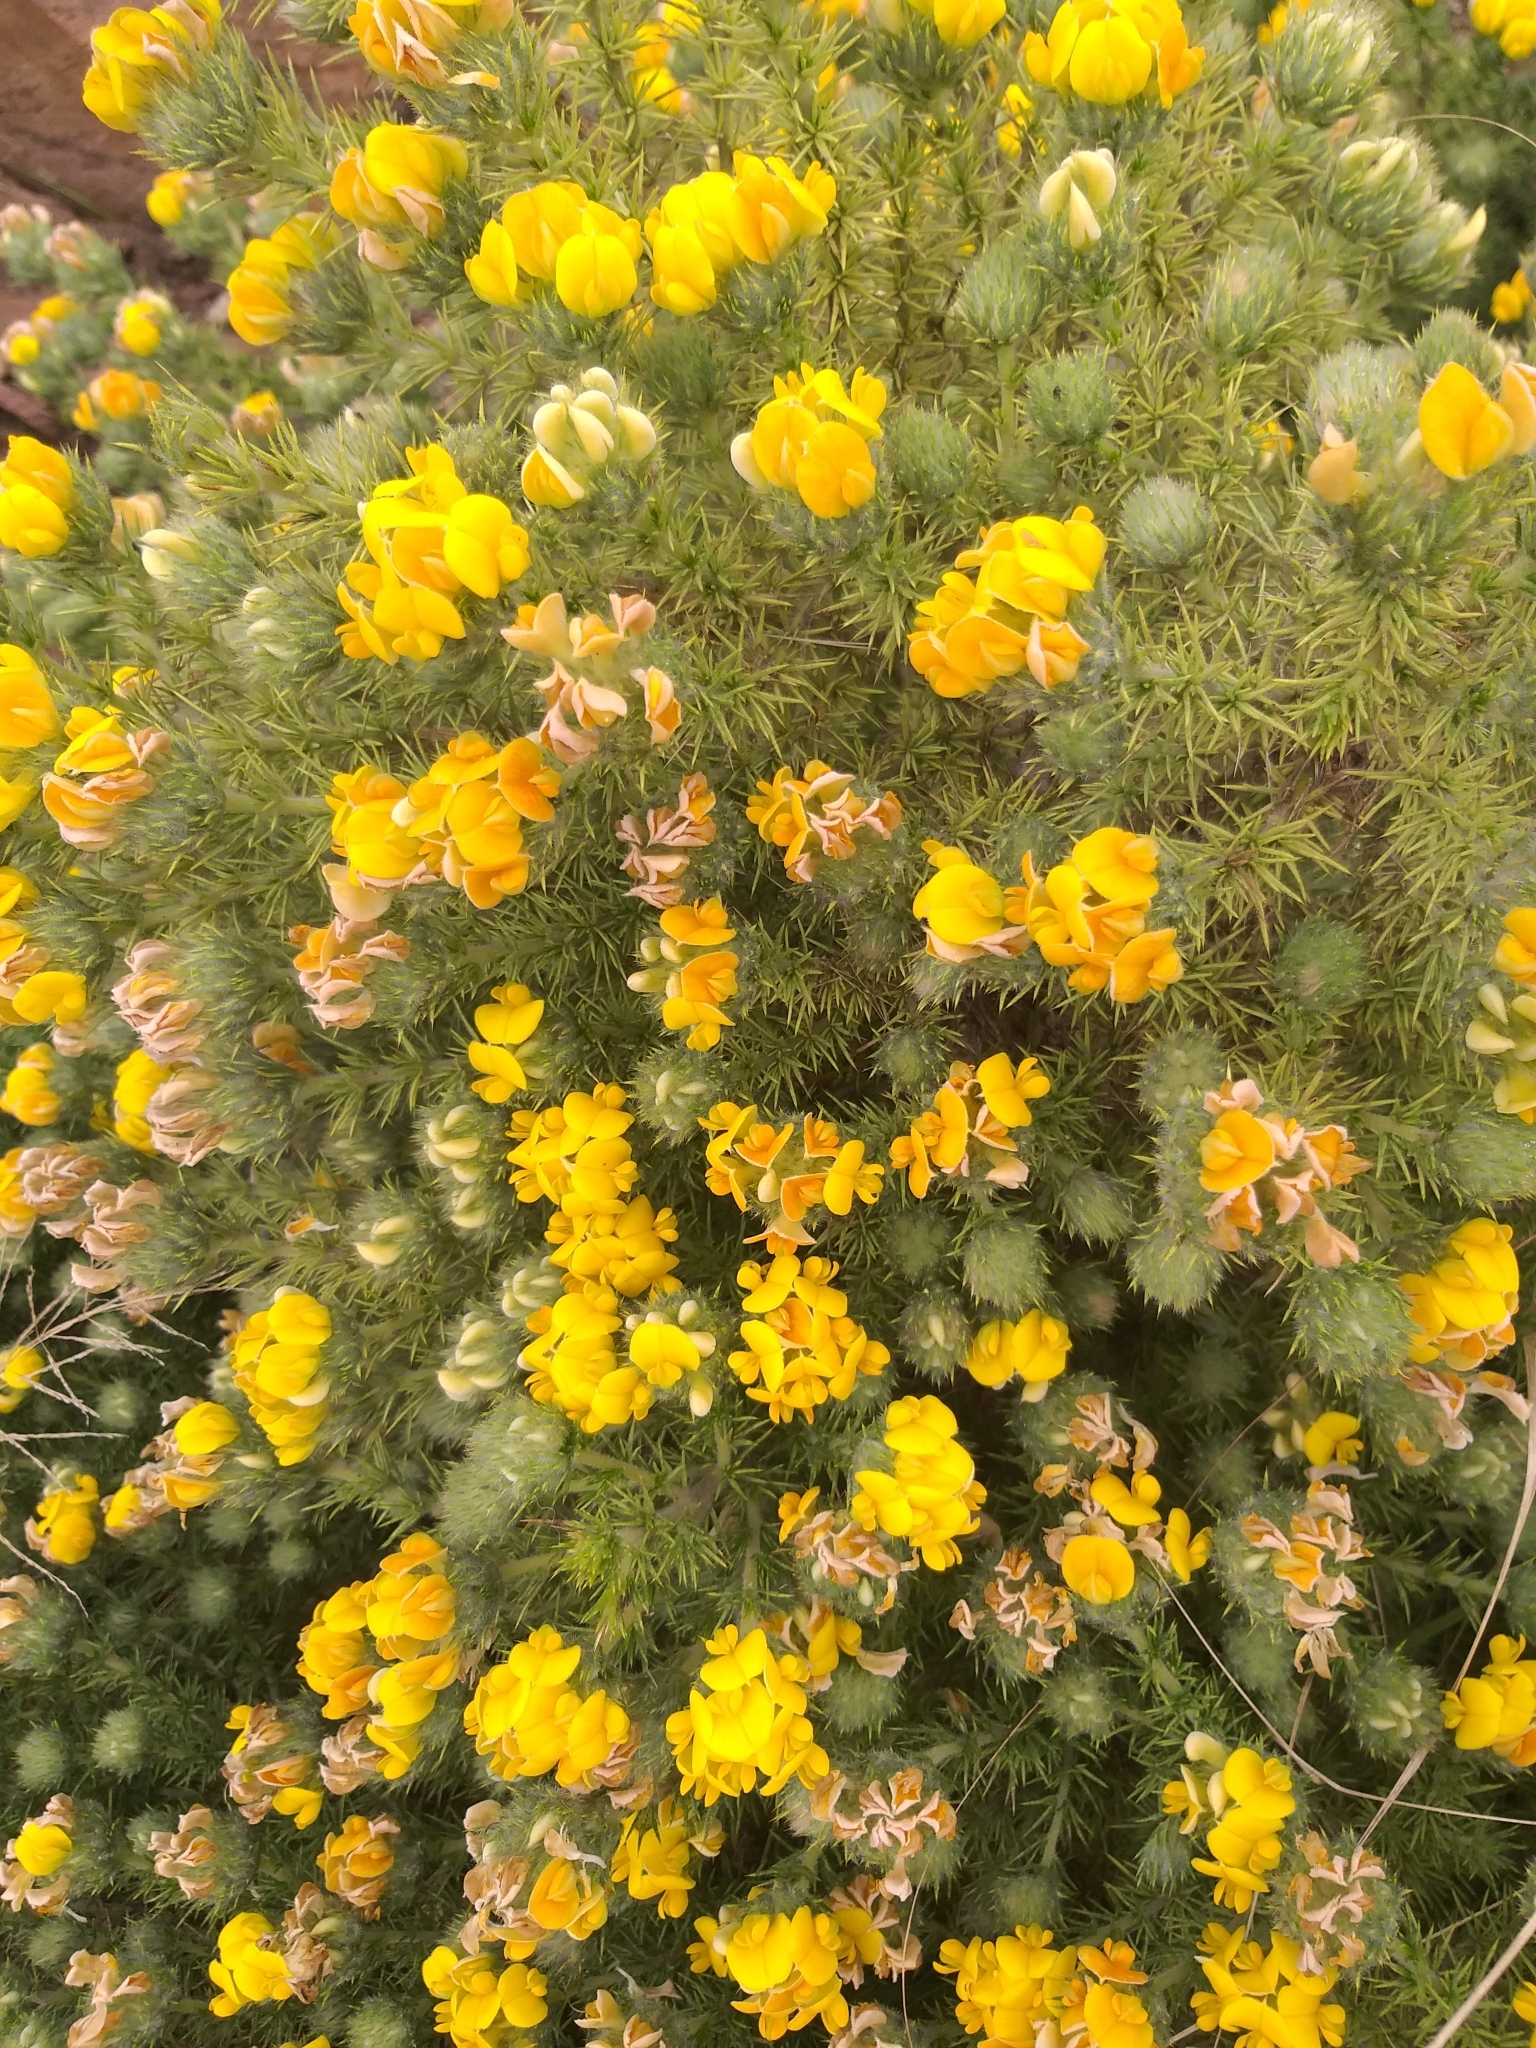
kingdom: Plantae
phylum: Tracheophyta
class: Magnoliopsida
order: Fabales
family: Fabaceae
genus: Aspalathus
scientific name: Aspalathus chenopoda
